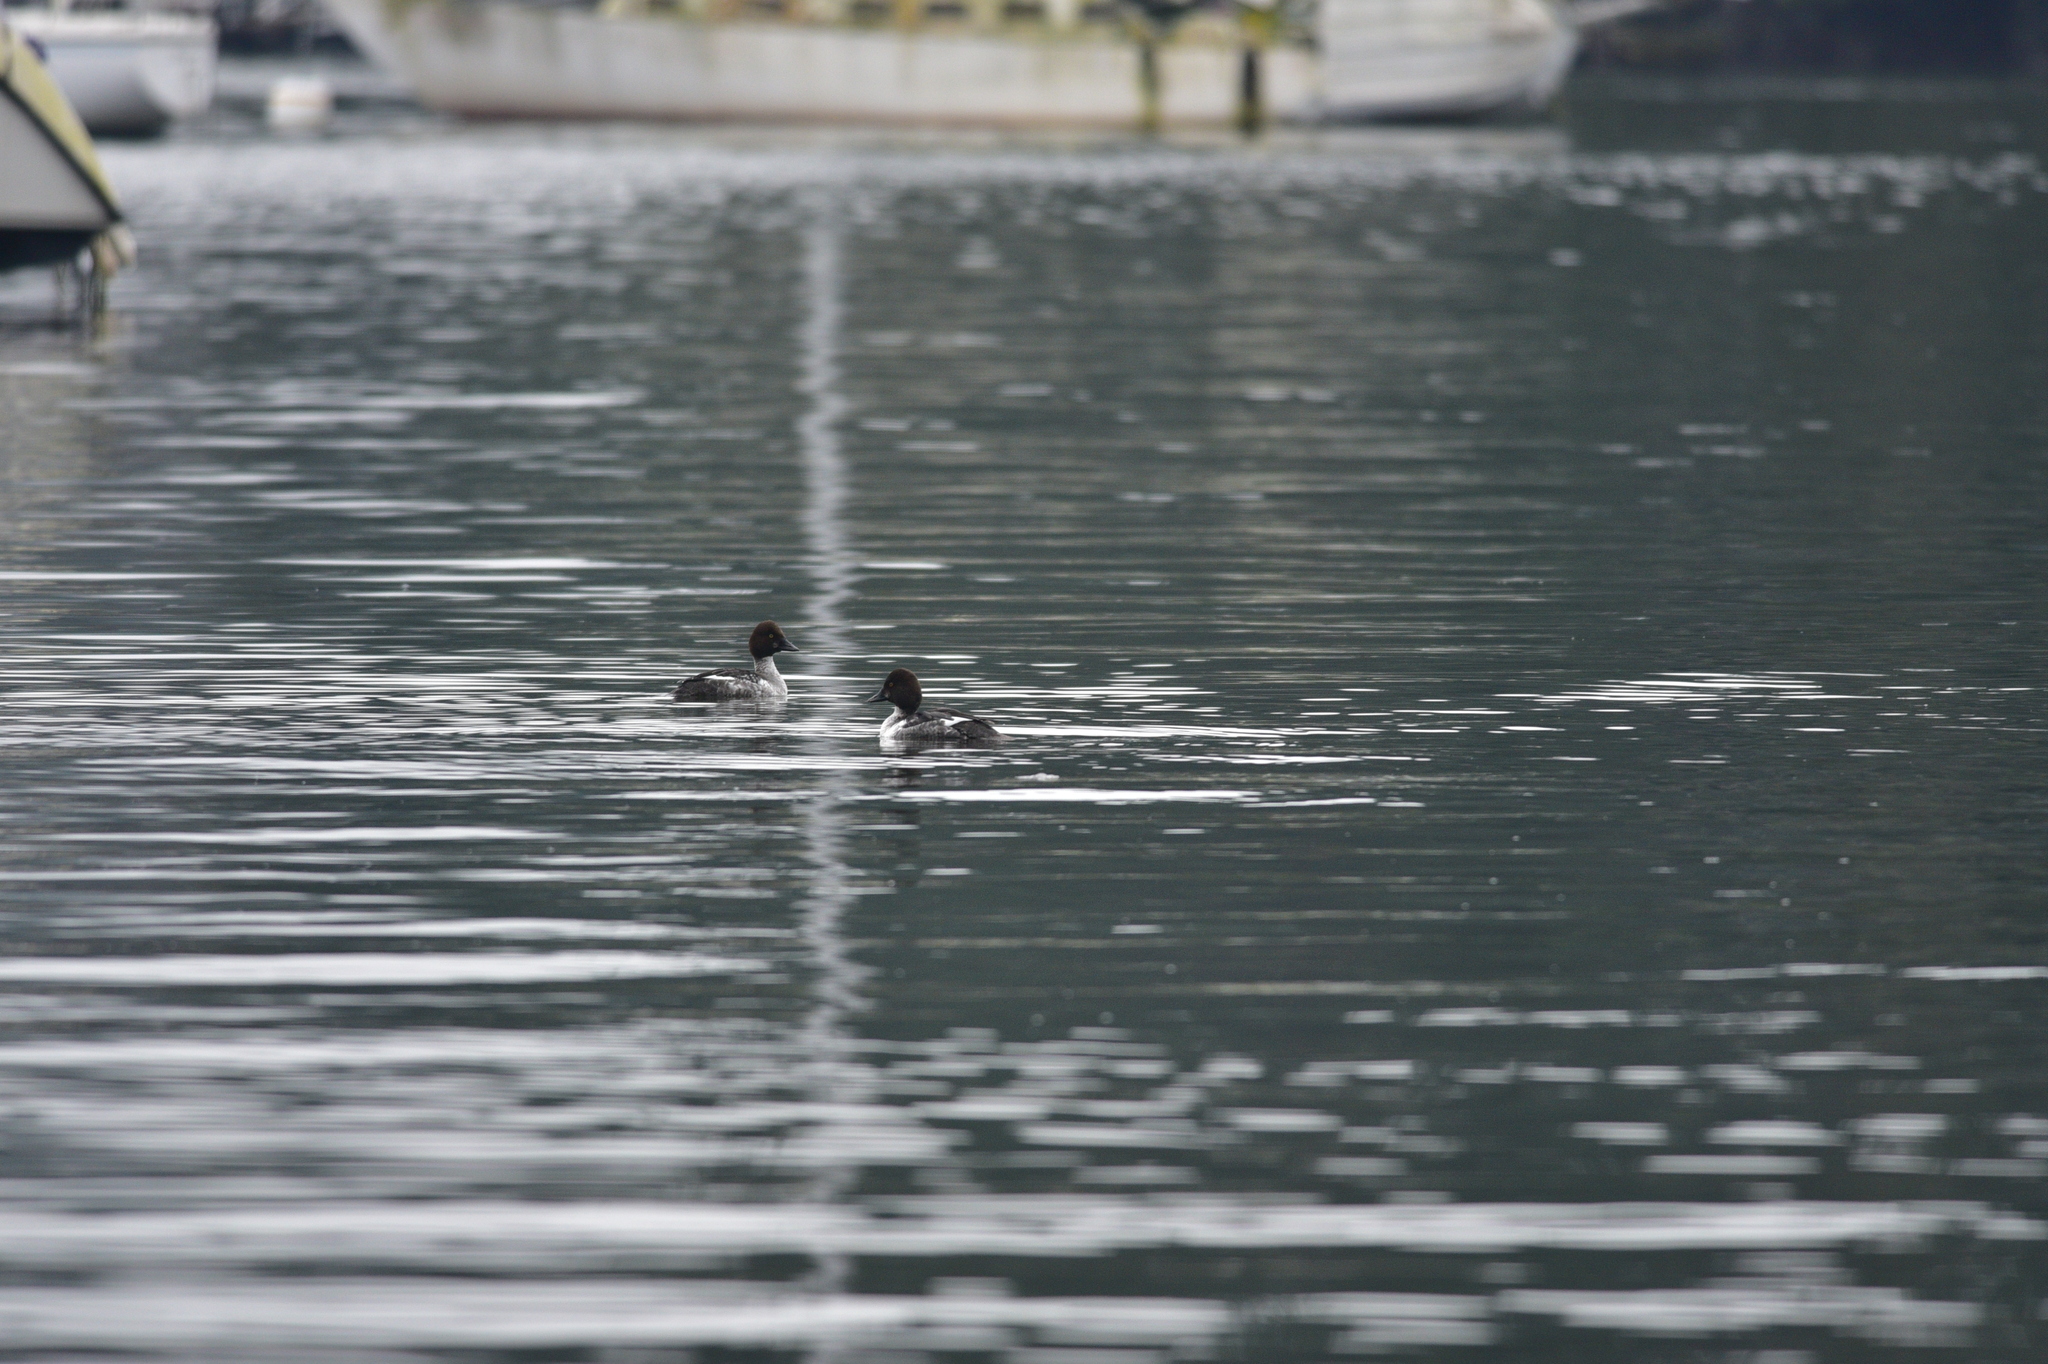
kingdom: Animalia
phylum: Chordata
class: Aves
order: Anseriformes
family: Anatidae
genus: Bucephala
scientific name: Bucephala clangula
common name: Common goldeneye
